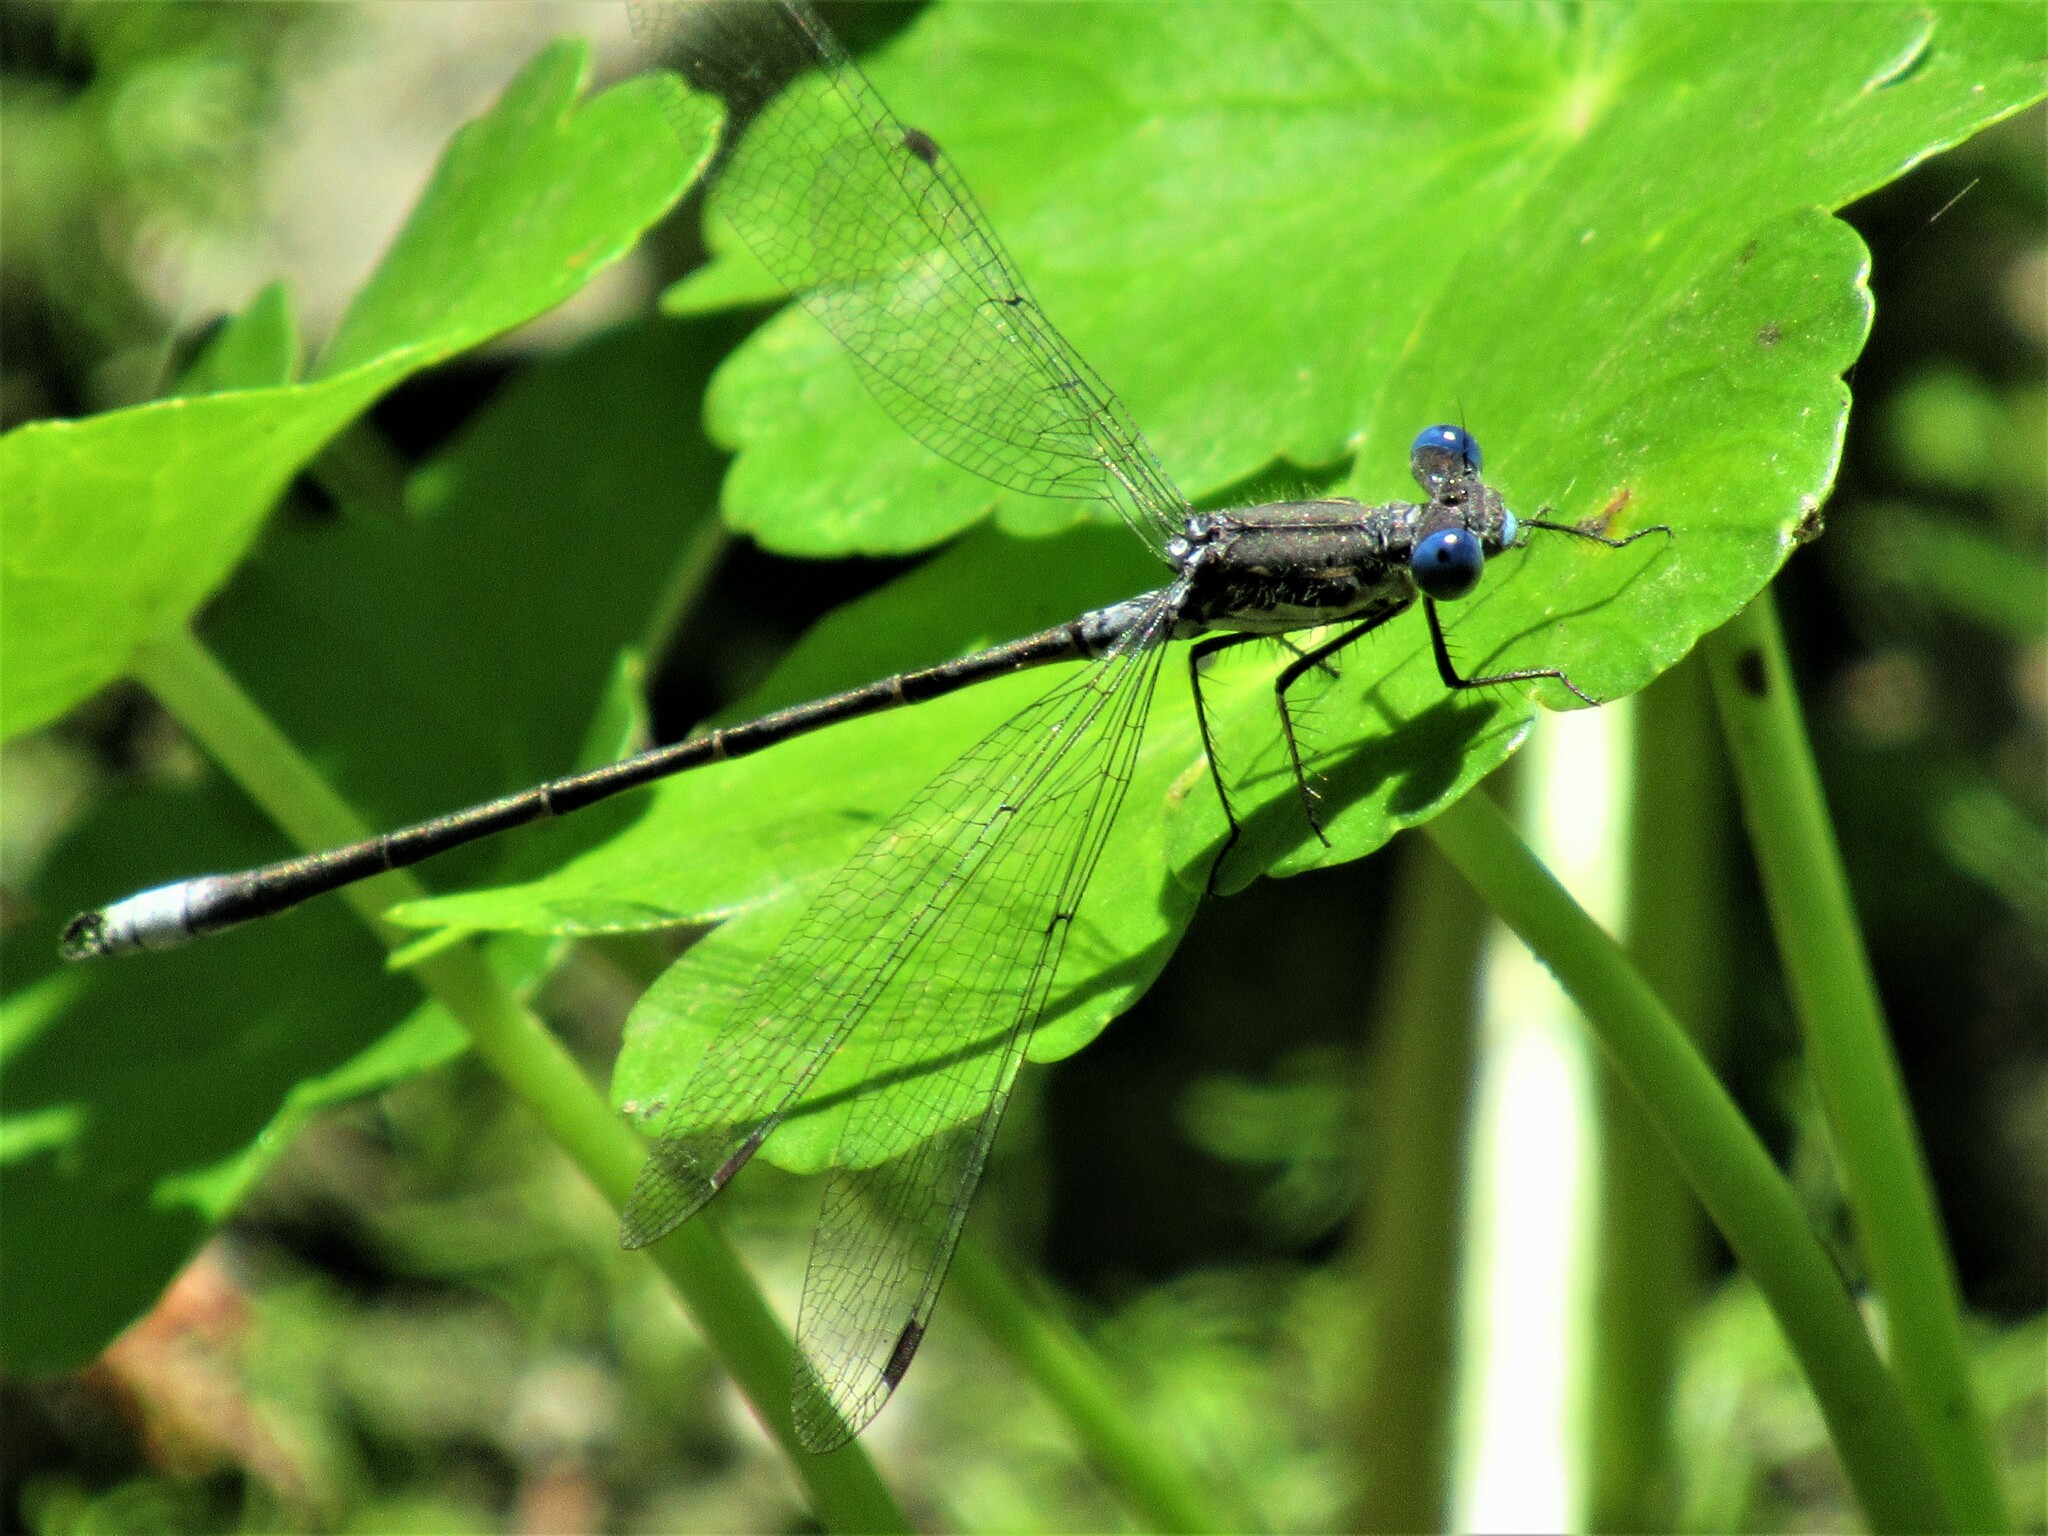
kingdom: Animalia
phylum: Arthropoda
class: Insecta
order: Odonata
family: Lestidae
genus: Lestes
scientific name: Lestes congener
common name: Spotted spreadwing
